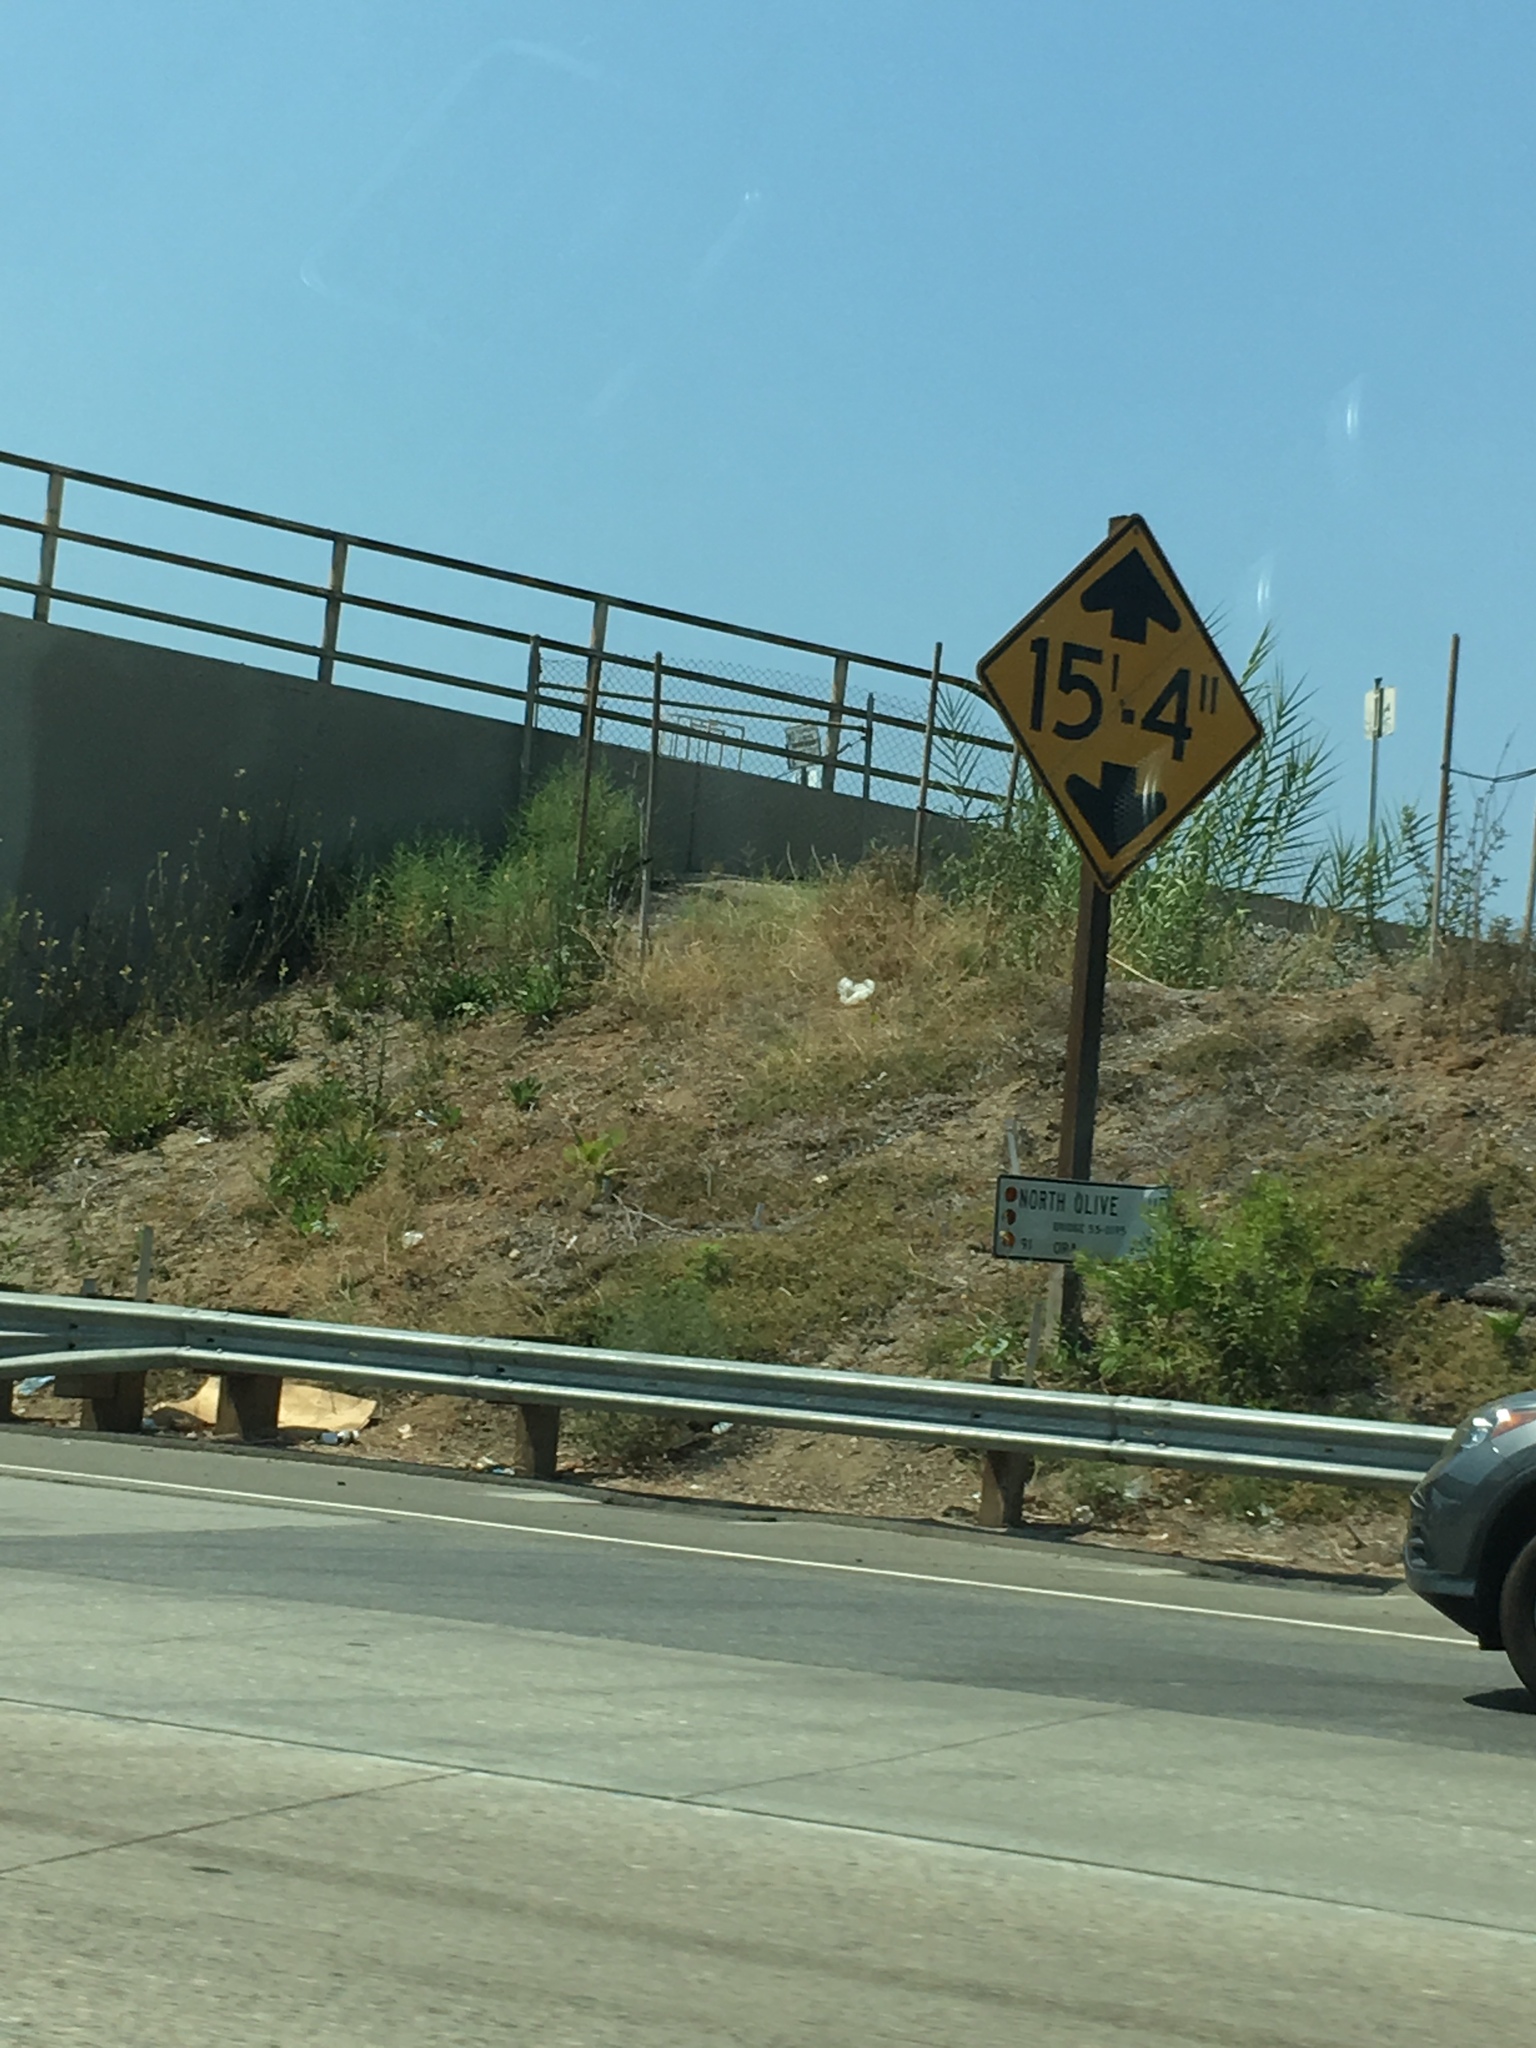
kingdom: Plantae
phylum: Tracheophyta
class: Liliopsida
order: Poales
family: Poaceae
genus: Arundo
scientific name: Arundo donax
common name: Giant reed
